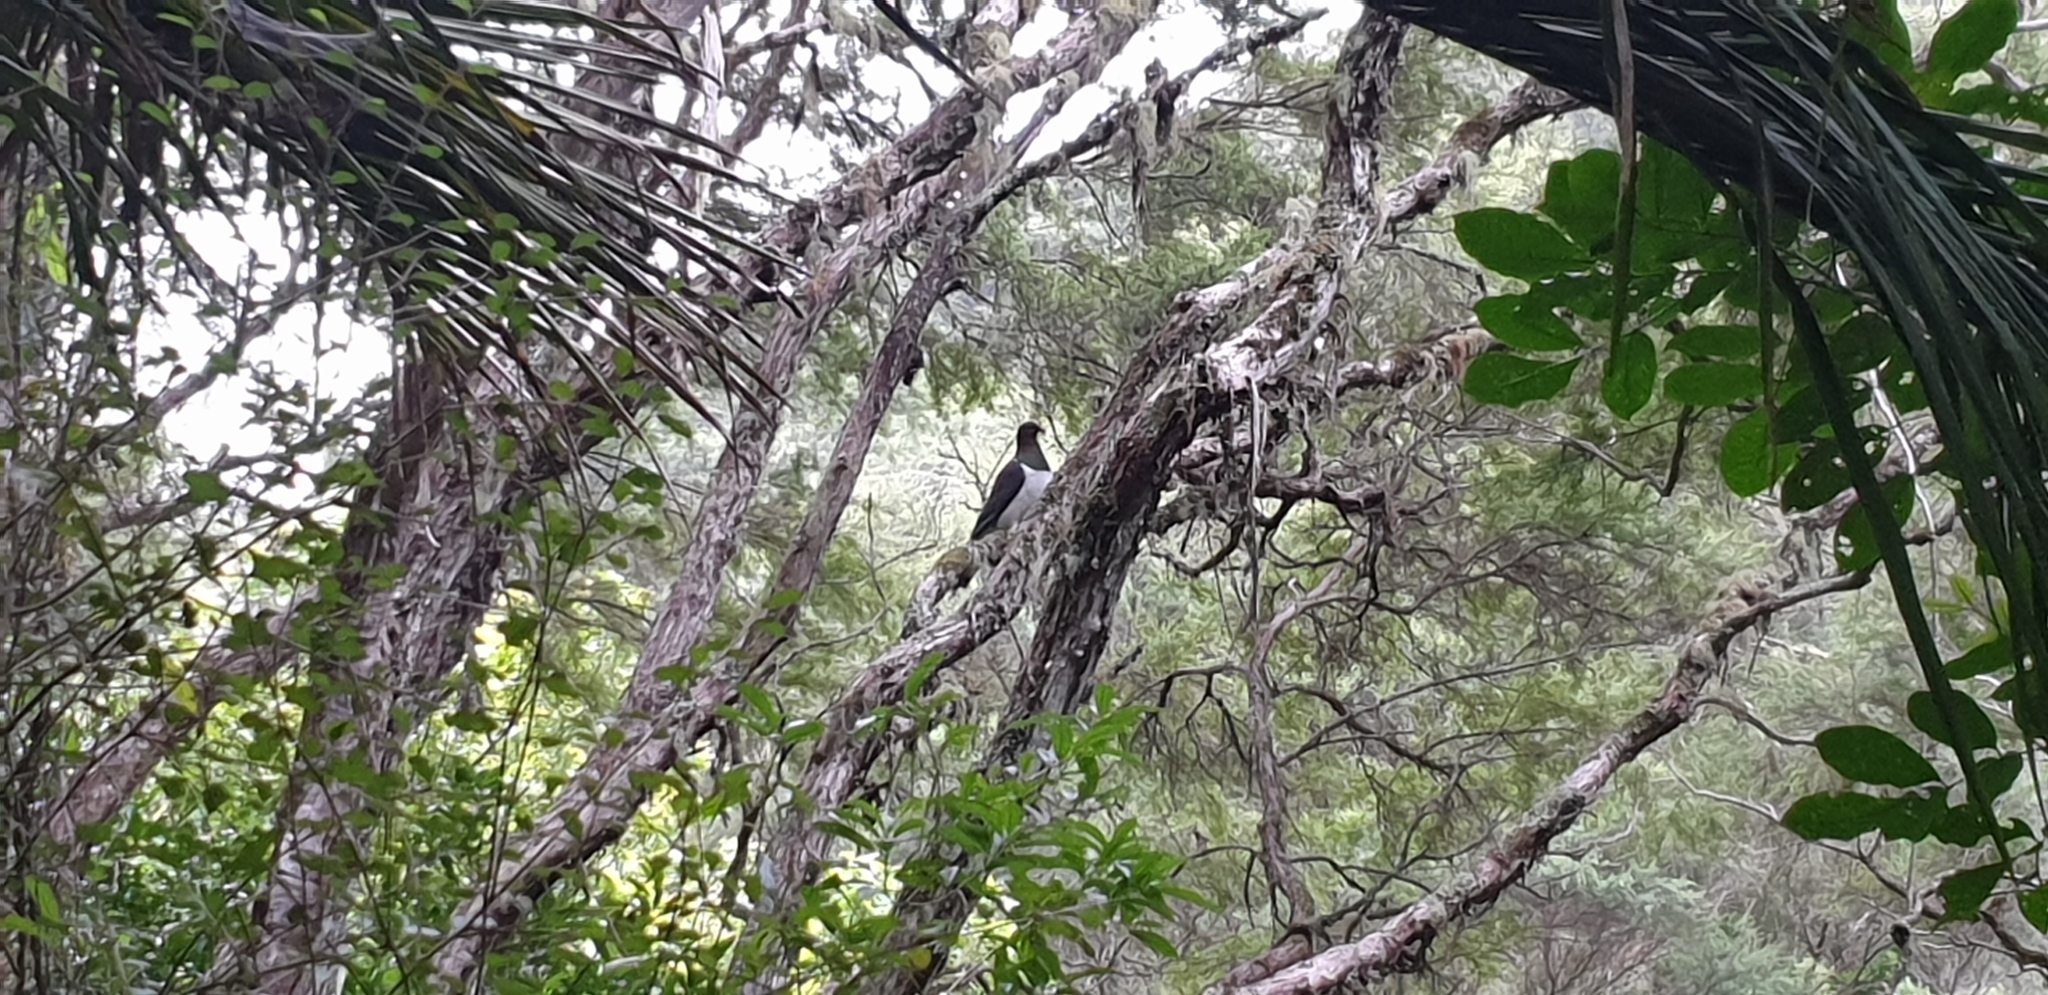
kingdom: Animalia
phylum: Chordata
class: Aves
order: Columbiformes
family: Columbidae
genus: Hemiphaga
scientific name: Hemiphaga novaeseelandiae
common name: New zealand pigeon
